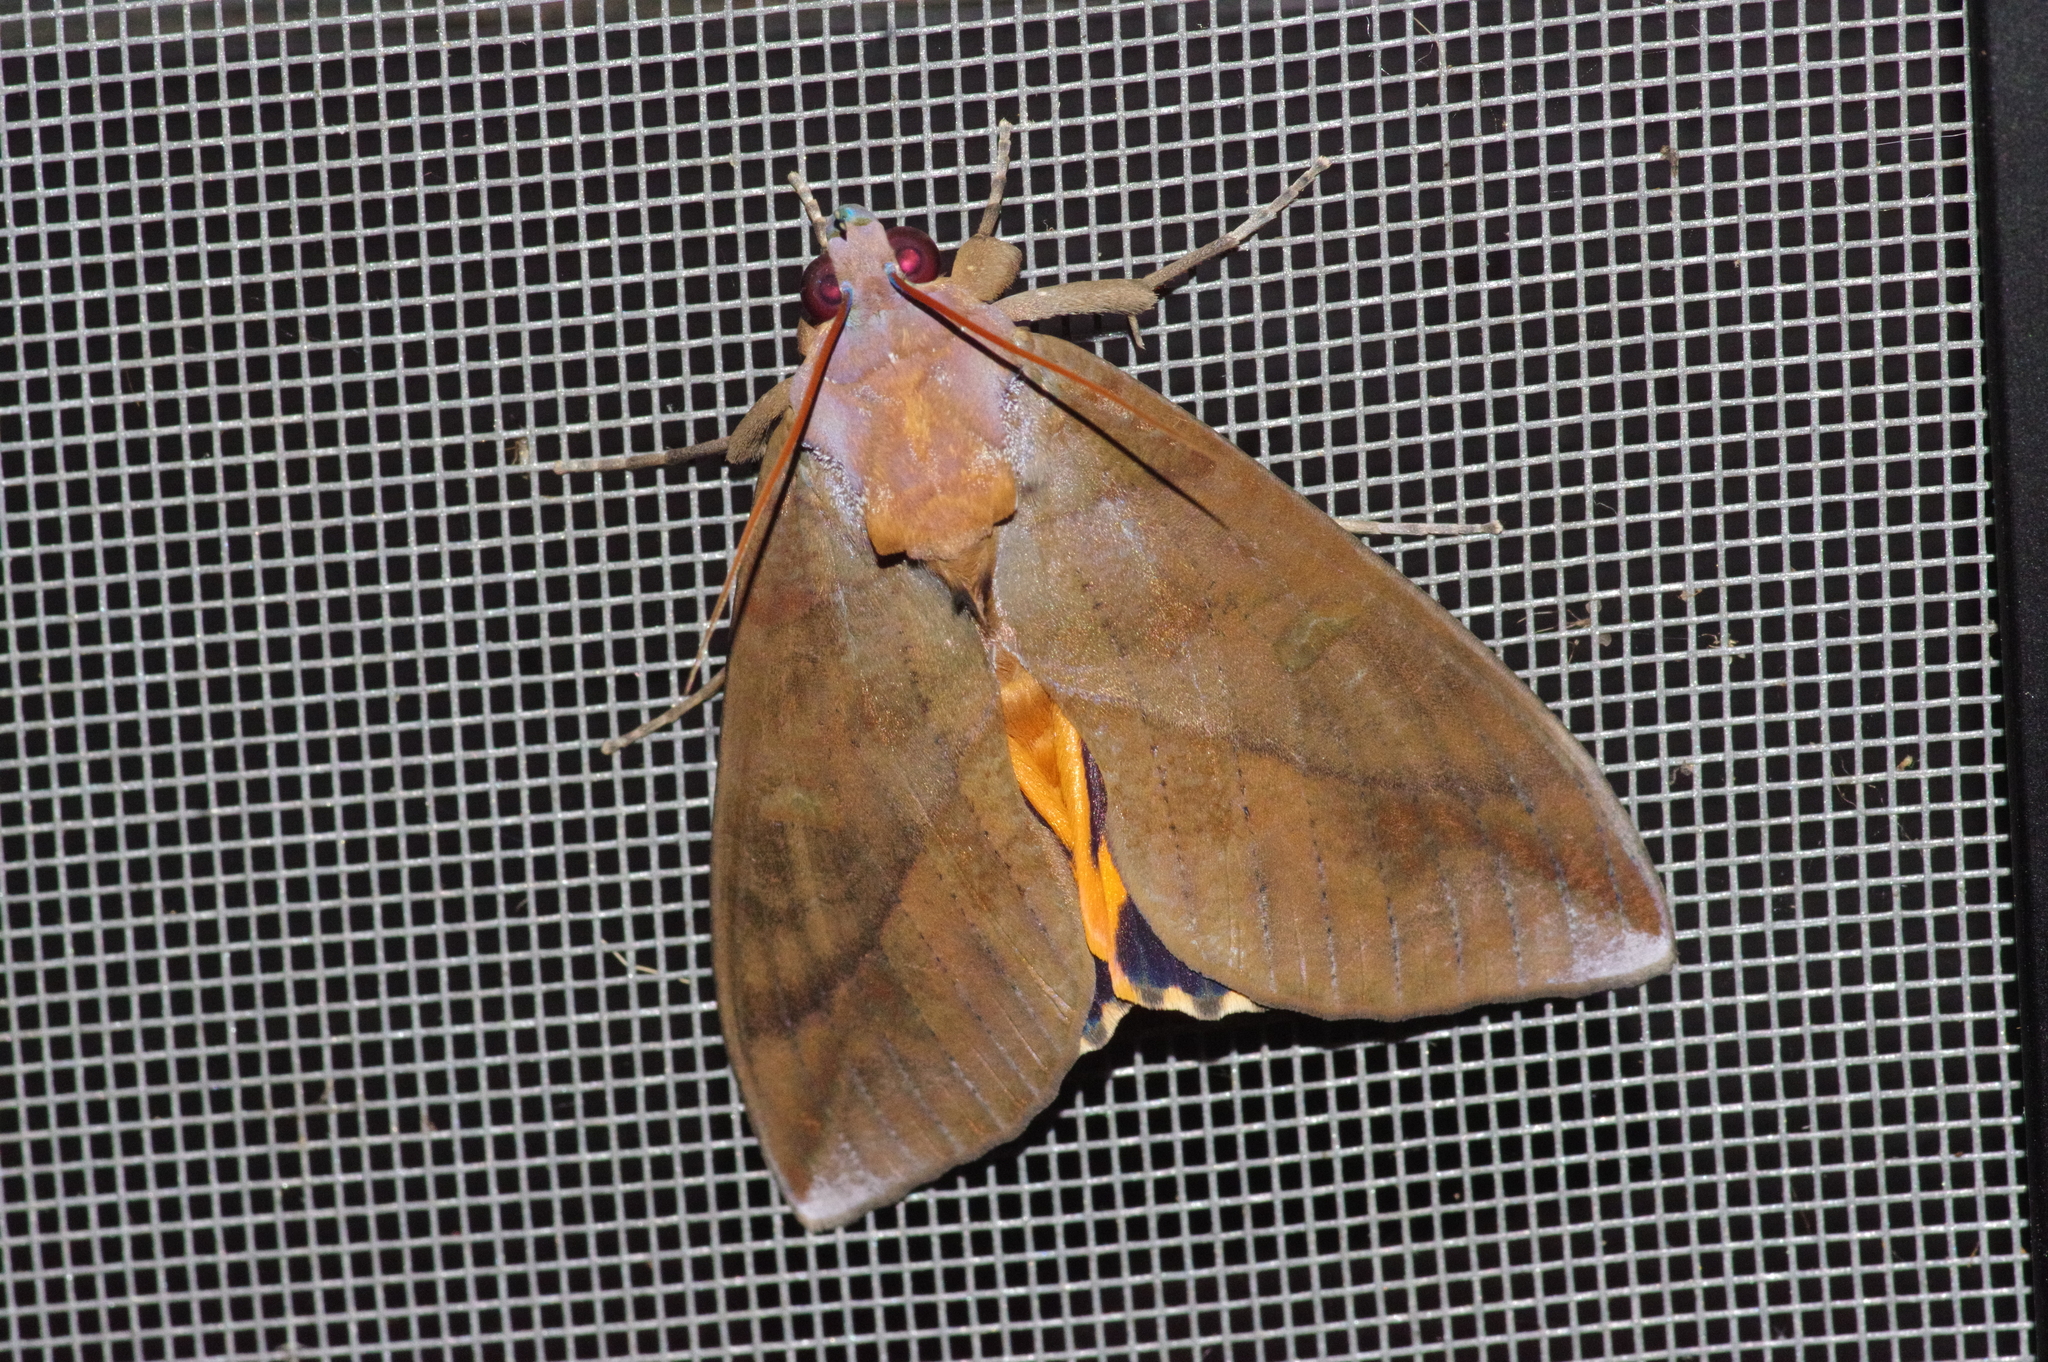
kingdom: Animalia
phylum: Arthropoda
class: Insecta
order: Lepidoptera
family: Erebidae
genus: Eudocima
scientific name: Eudocima phalonia
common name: Wasp
